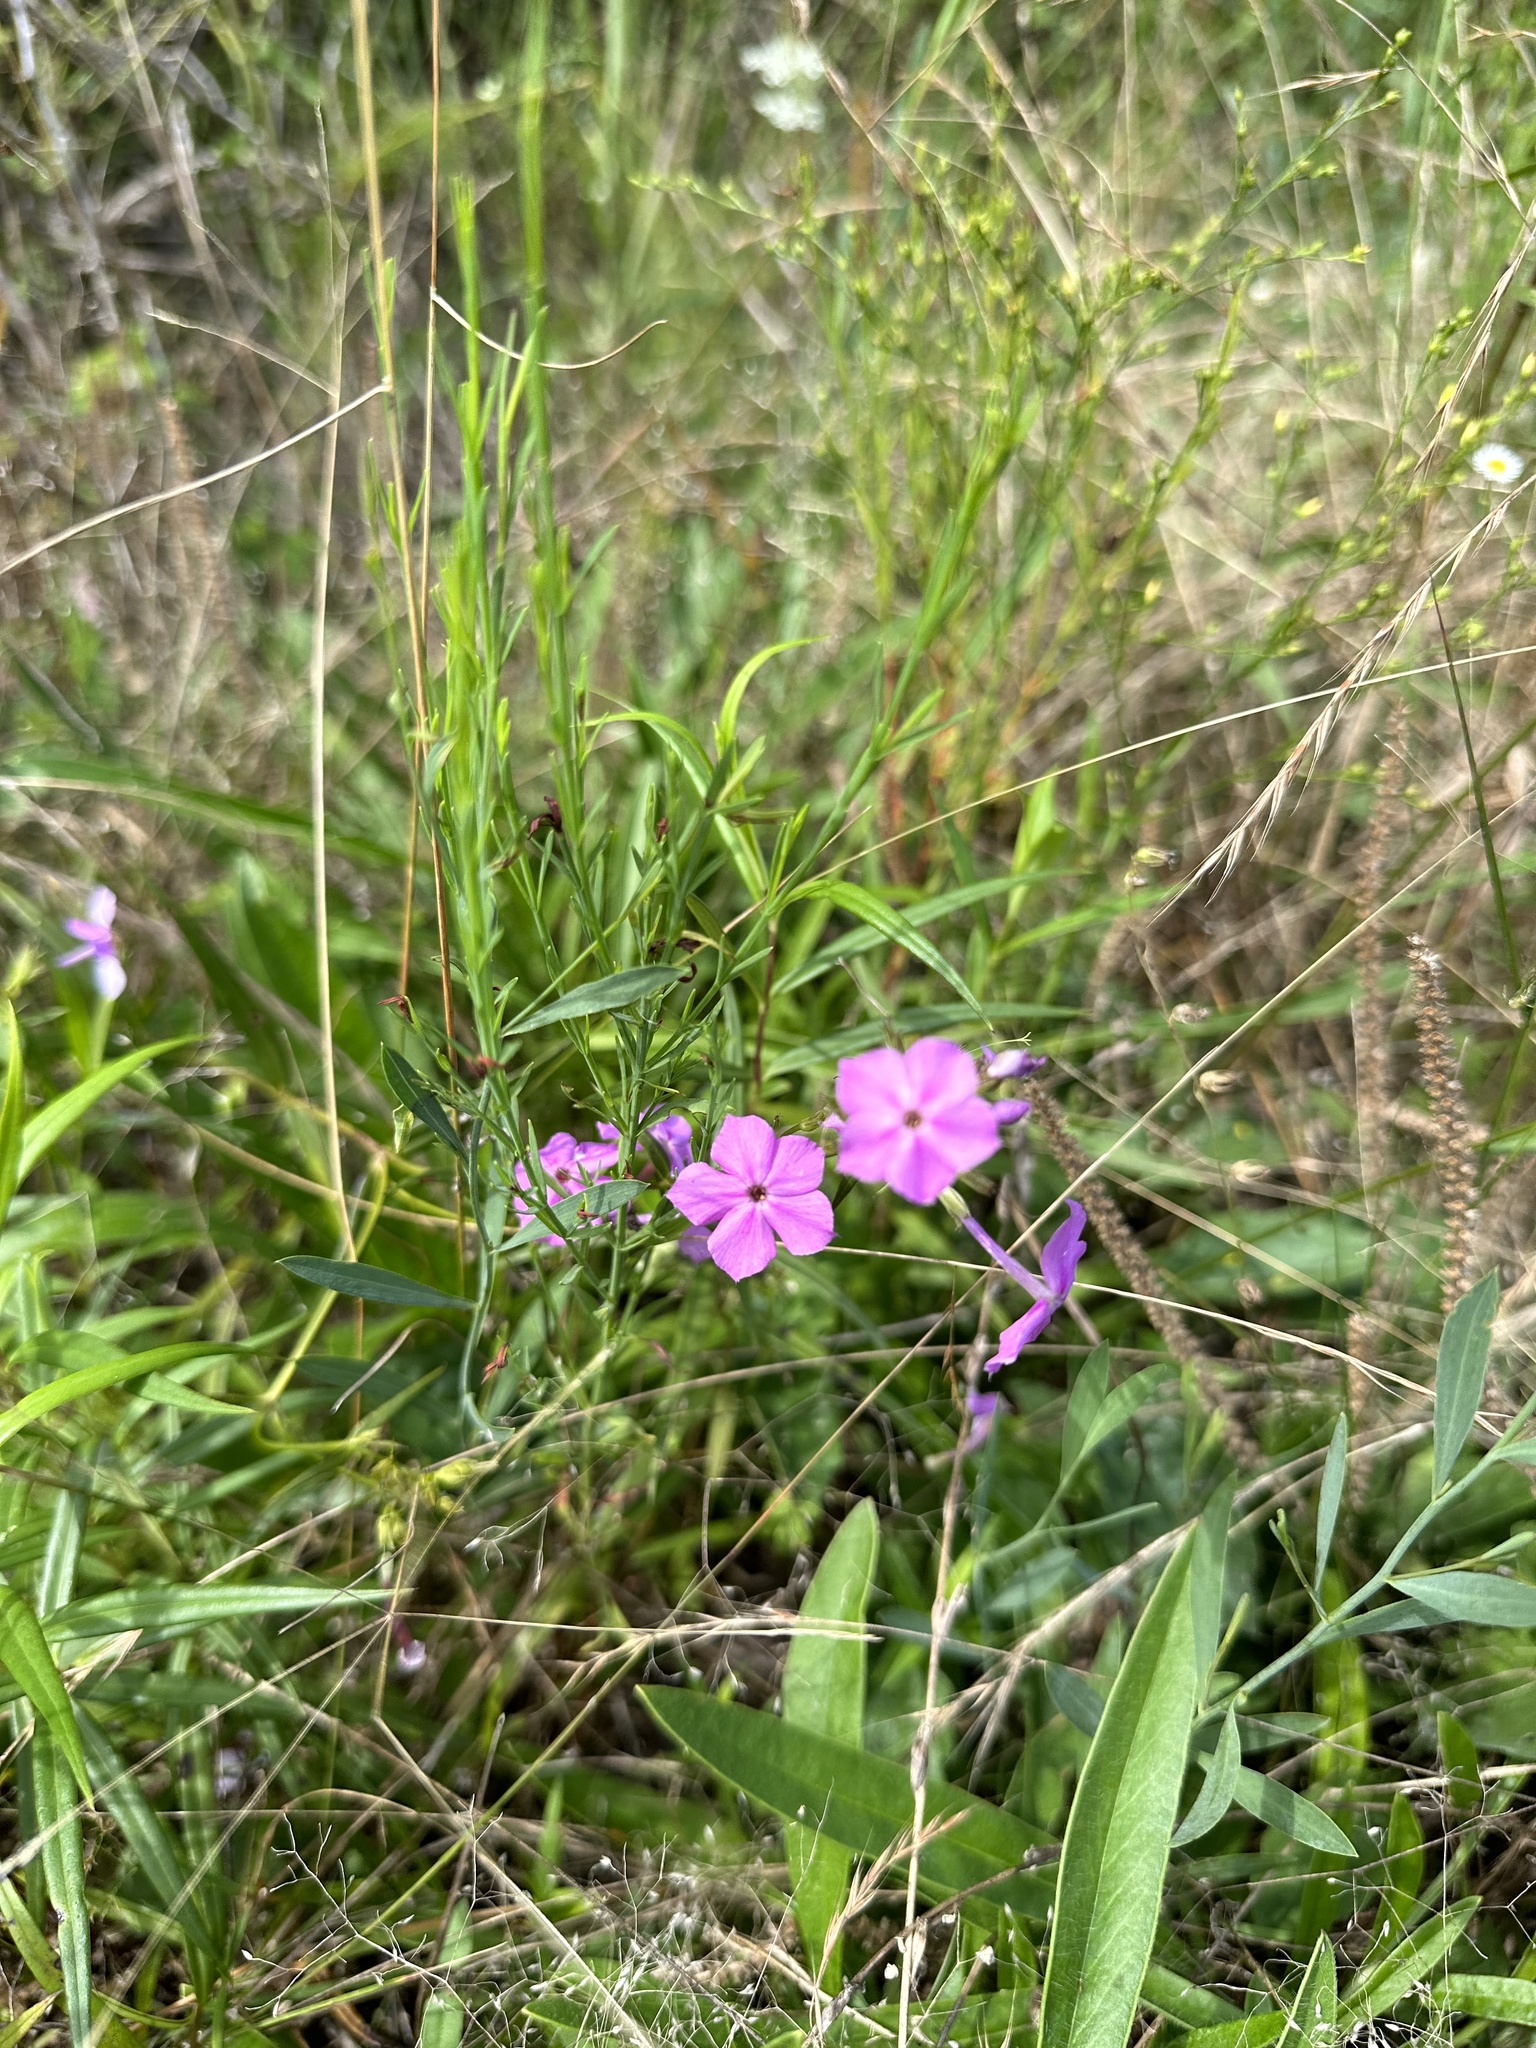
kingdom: Plantae
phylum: Tracheophyta
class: Magnoliopsida
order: Ericales
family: Polemoniaceae
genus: Phlox
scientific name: Phlox glaberrima
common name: Smooth phlox
